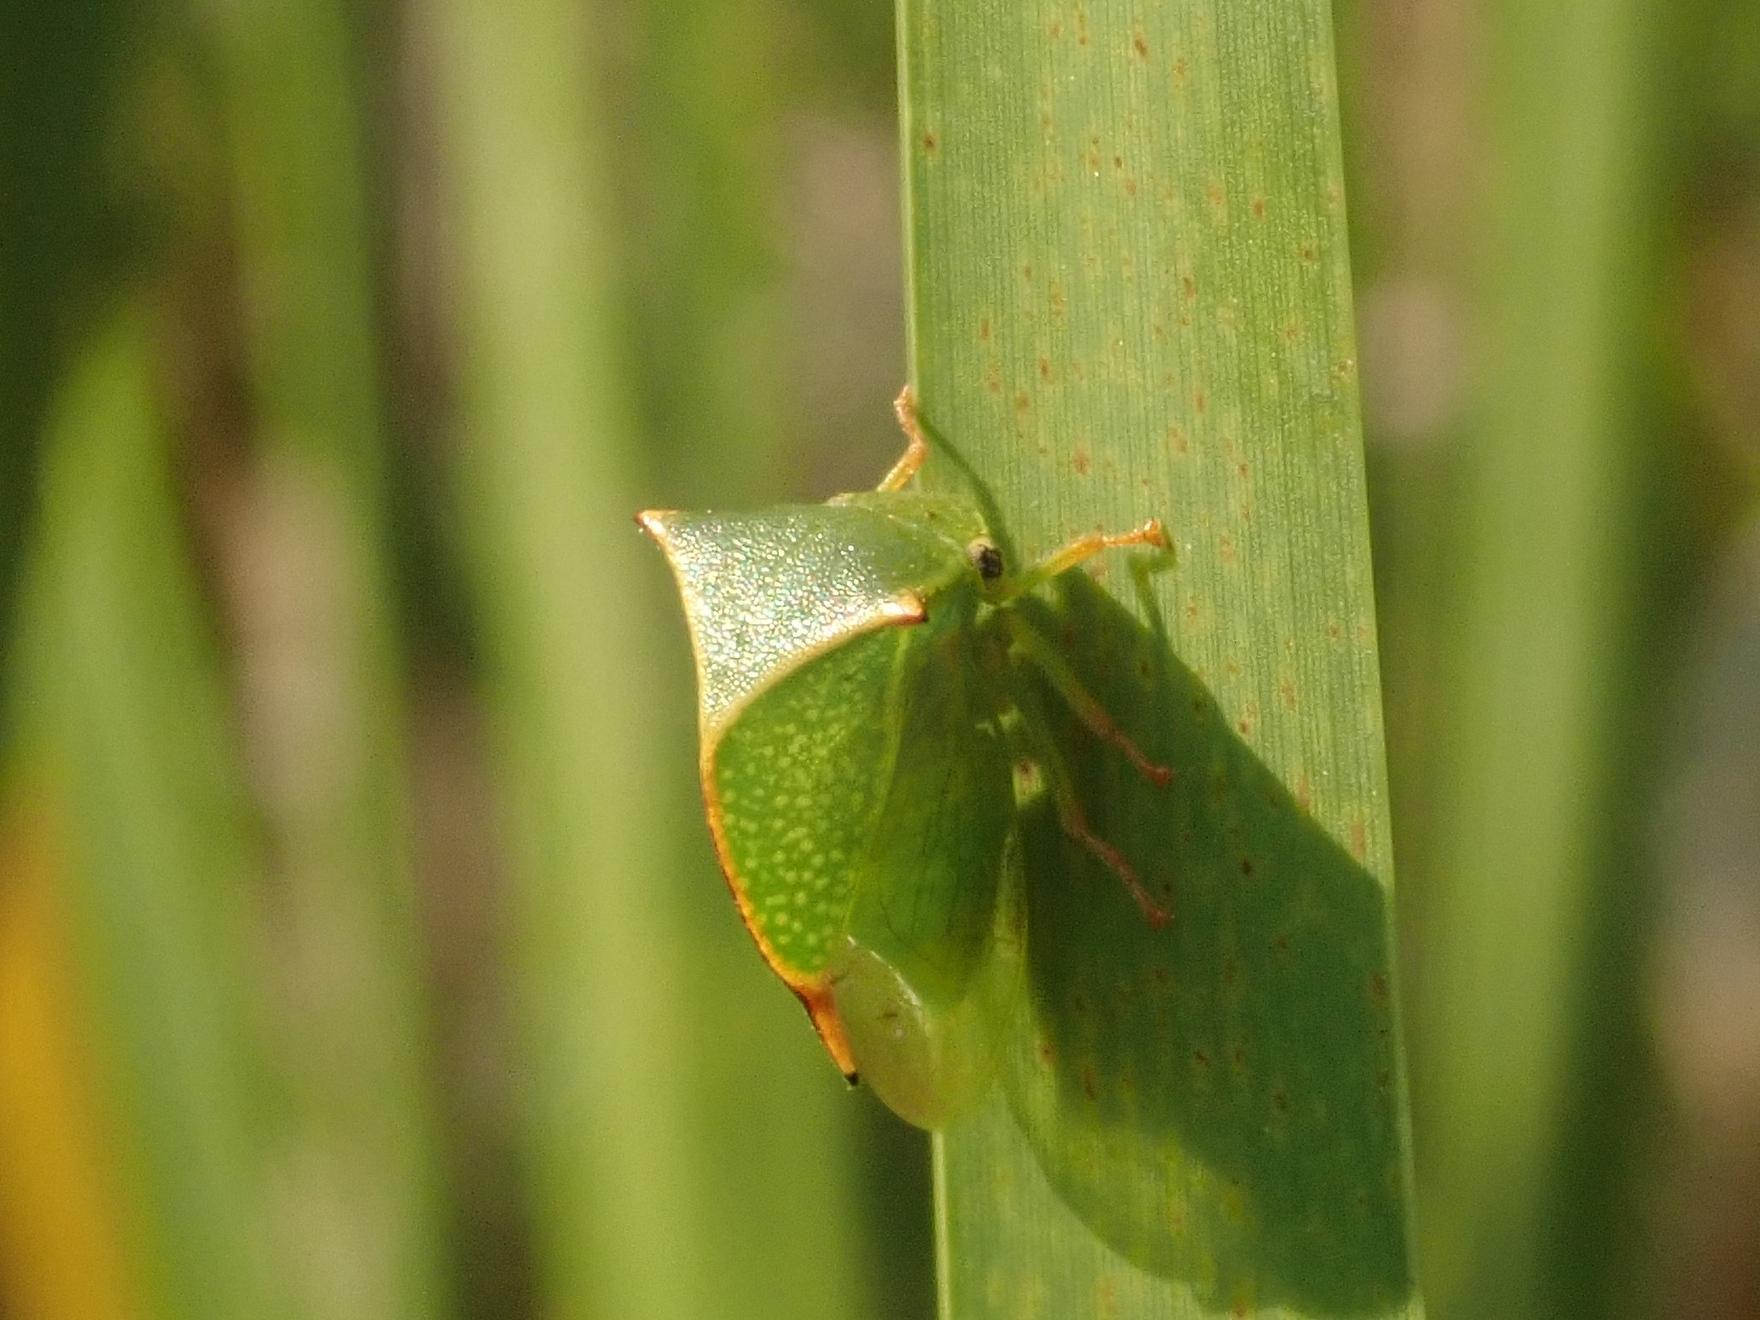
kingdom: Animalia
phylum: Arthropoda
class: Insecta
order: Hemiptera
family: Membracidae
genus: Stictocephala
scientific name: Stictocephala bisonia
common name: American buffalo treehopper
